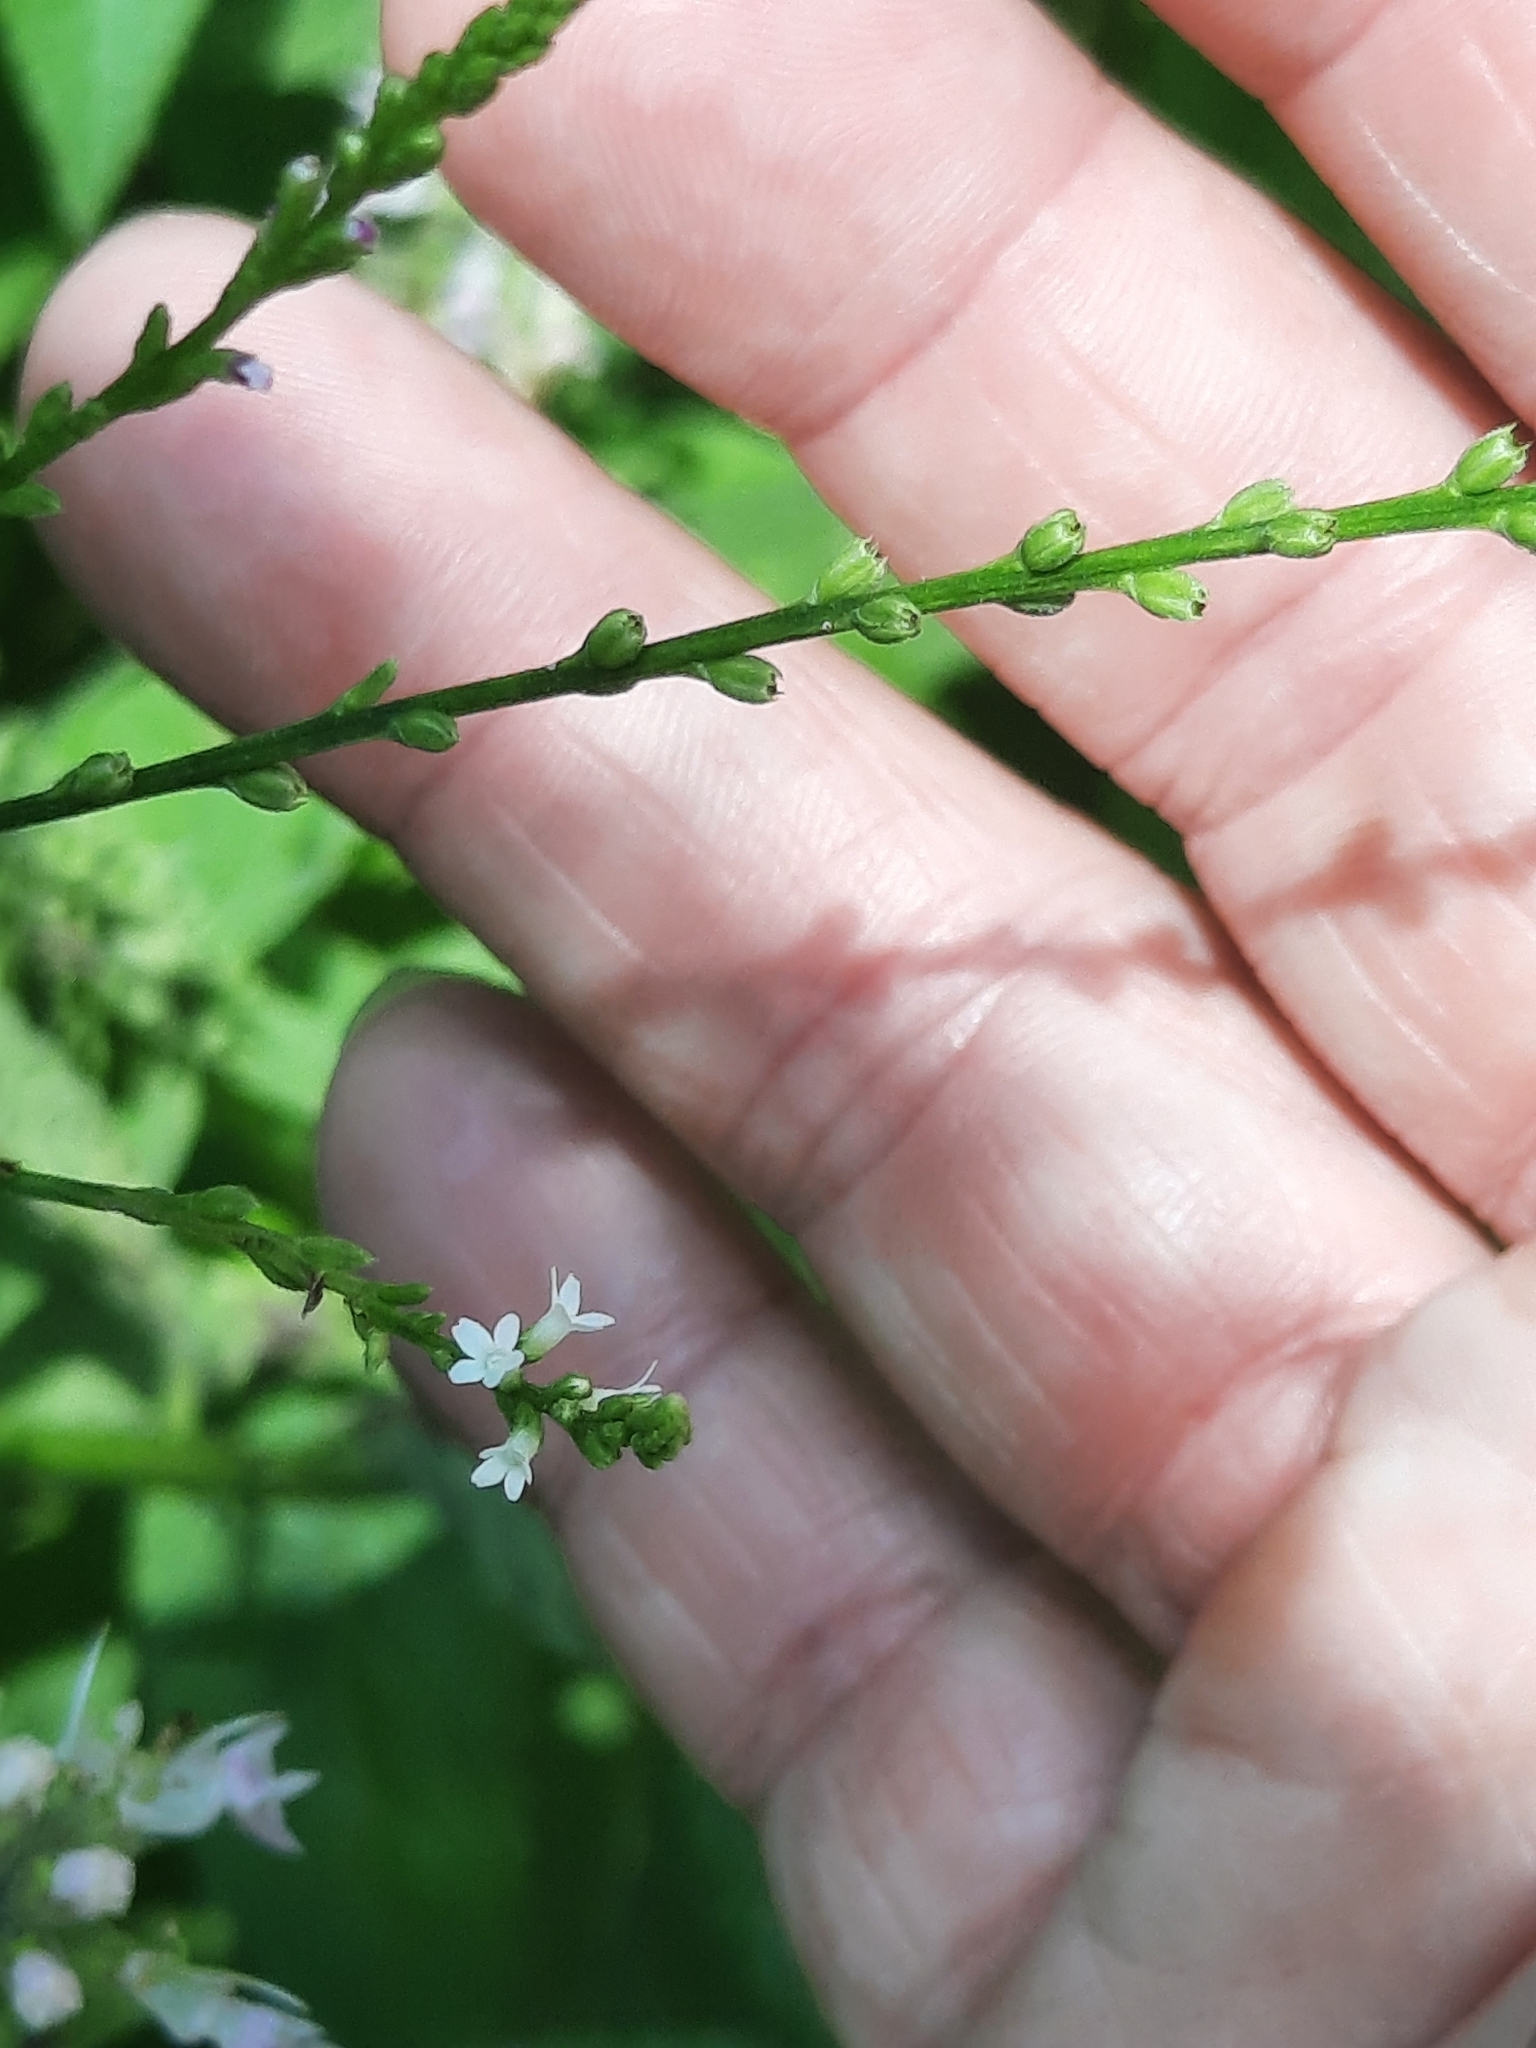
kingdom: Plantae
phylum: Tracheophyta
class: Magnoliopsida
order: Lamiales
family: Verbenaceae
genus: Verbena
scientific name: Verbena urticifolia
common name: Nettle-leaved vervain
